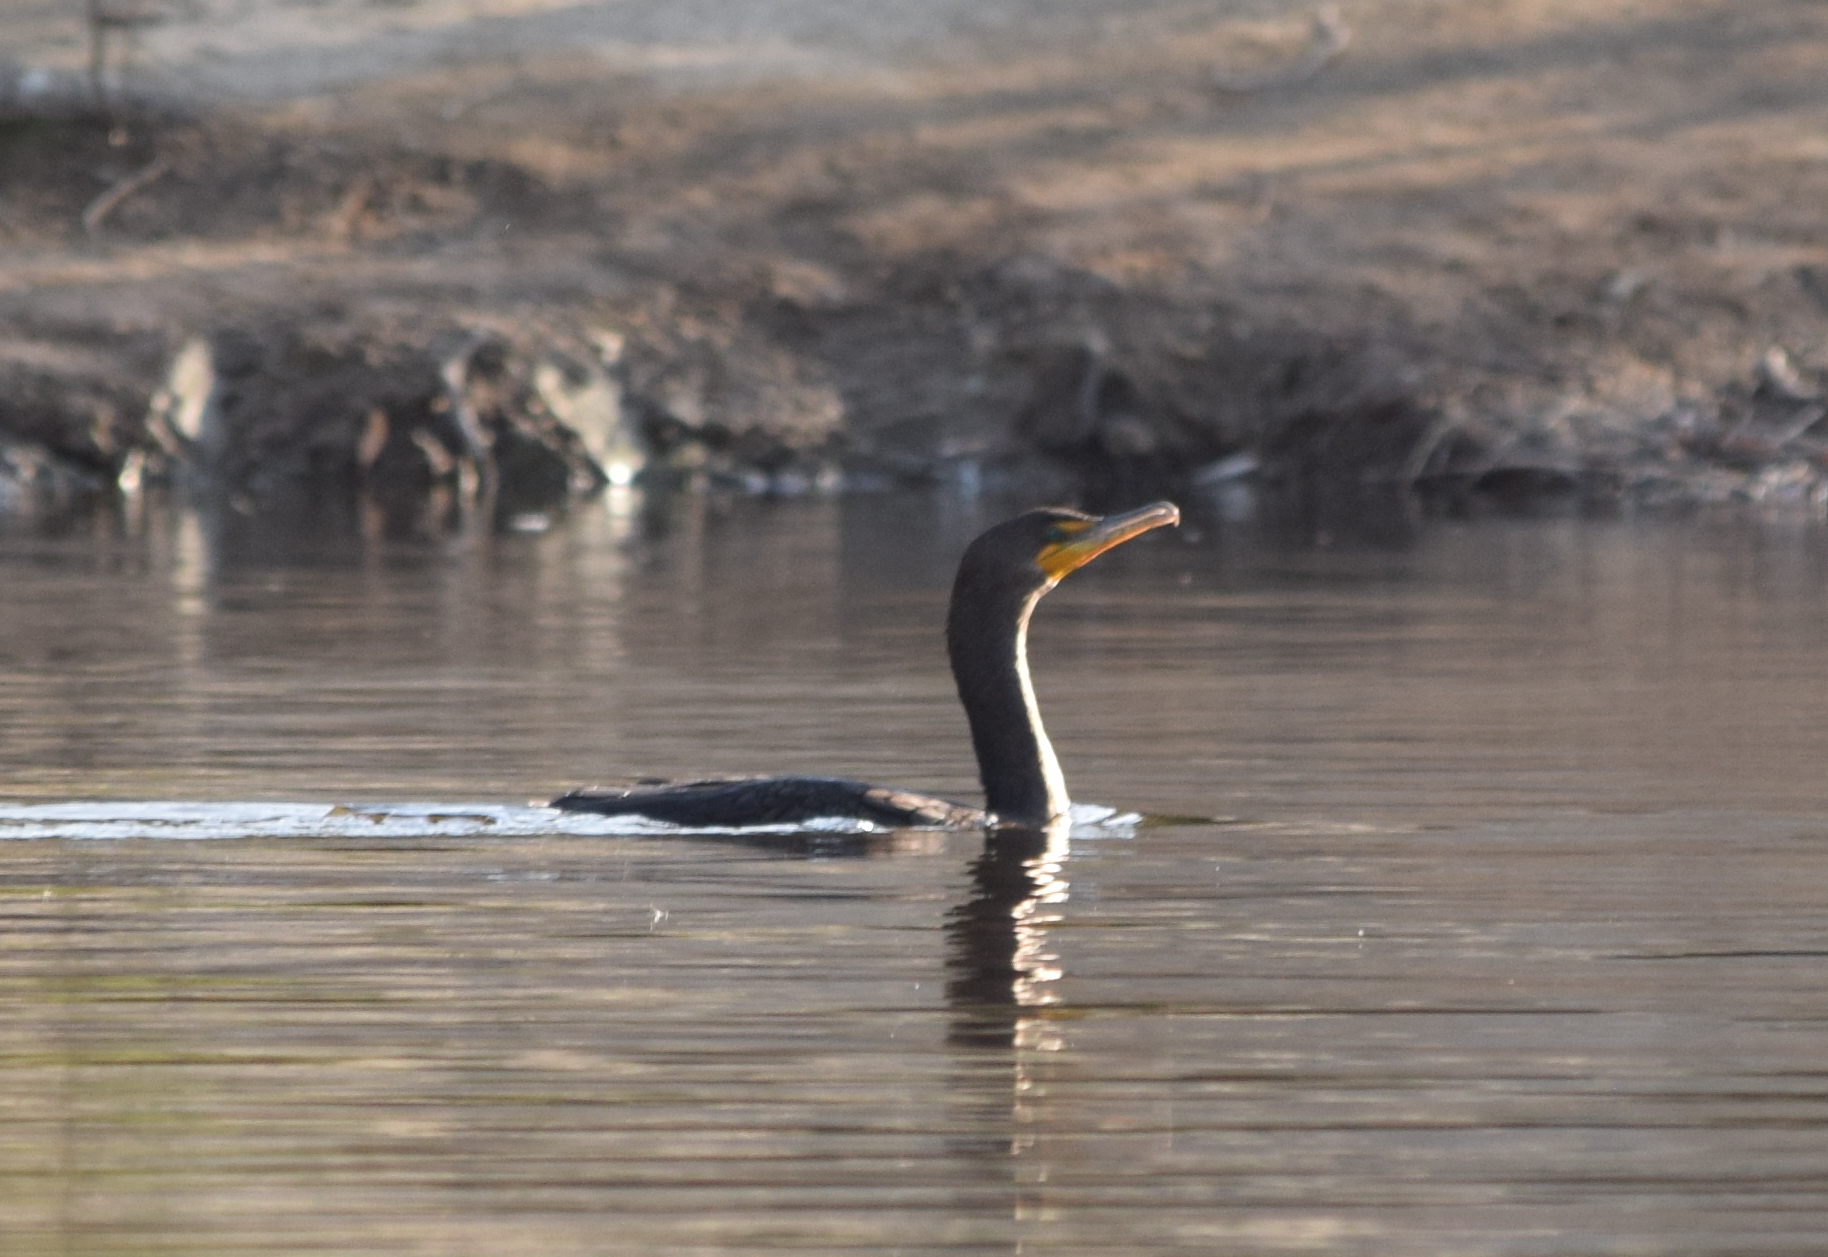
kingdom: Animalia
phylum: Chordata
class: Aves
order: Suliformes
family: Phalacrocoracidae
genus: Phalacrocorax
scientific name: Phalacrocorax auritus
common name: Double-crested cormorant
